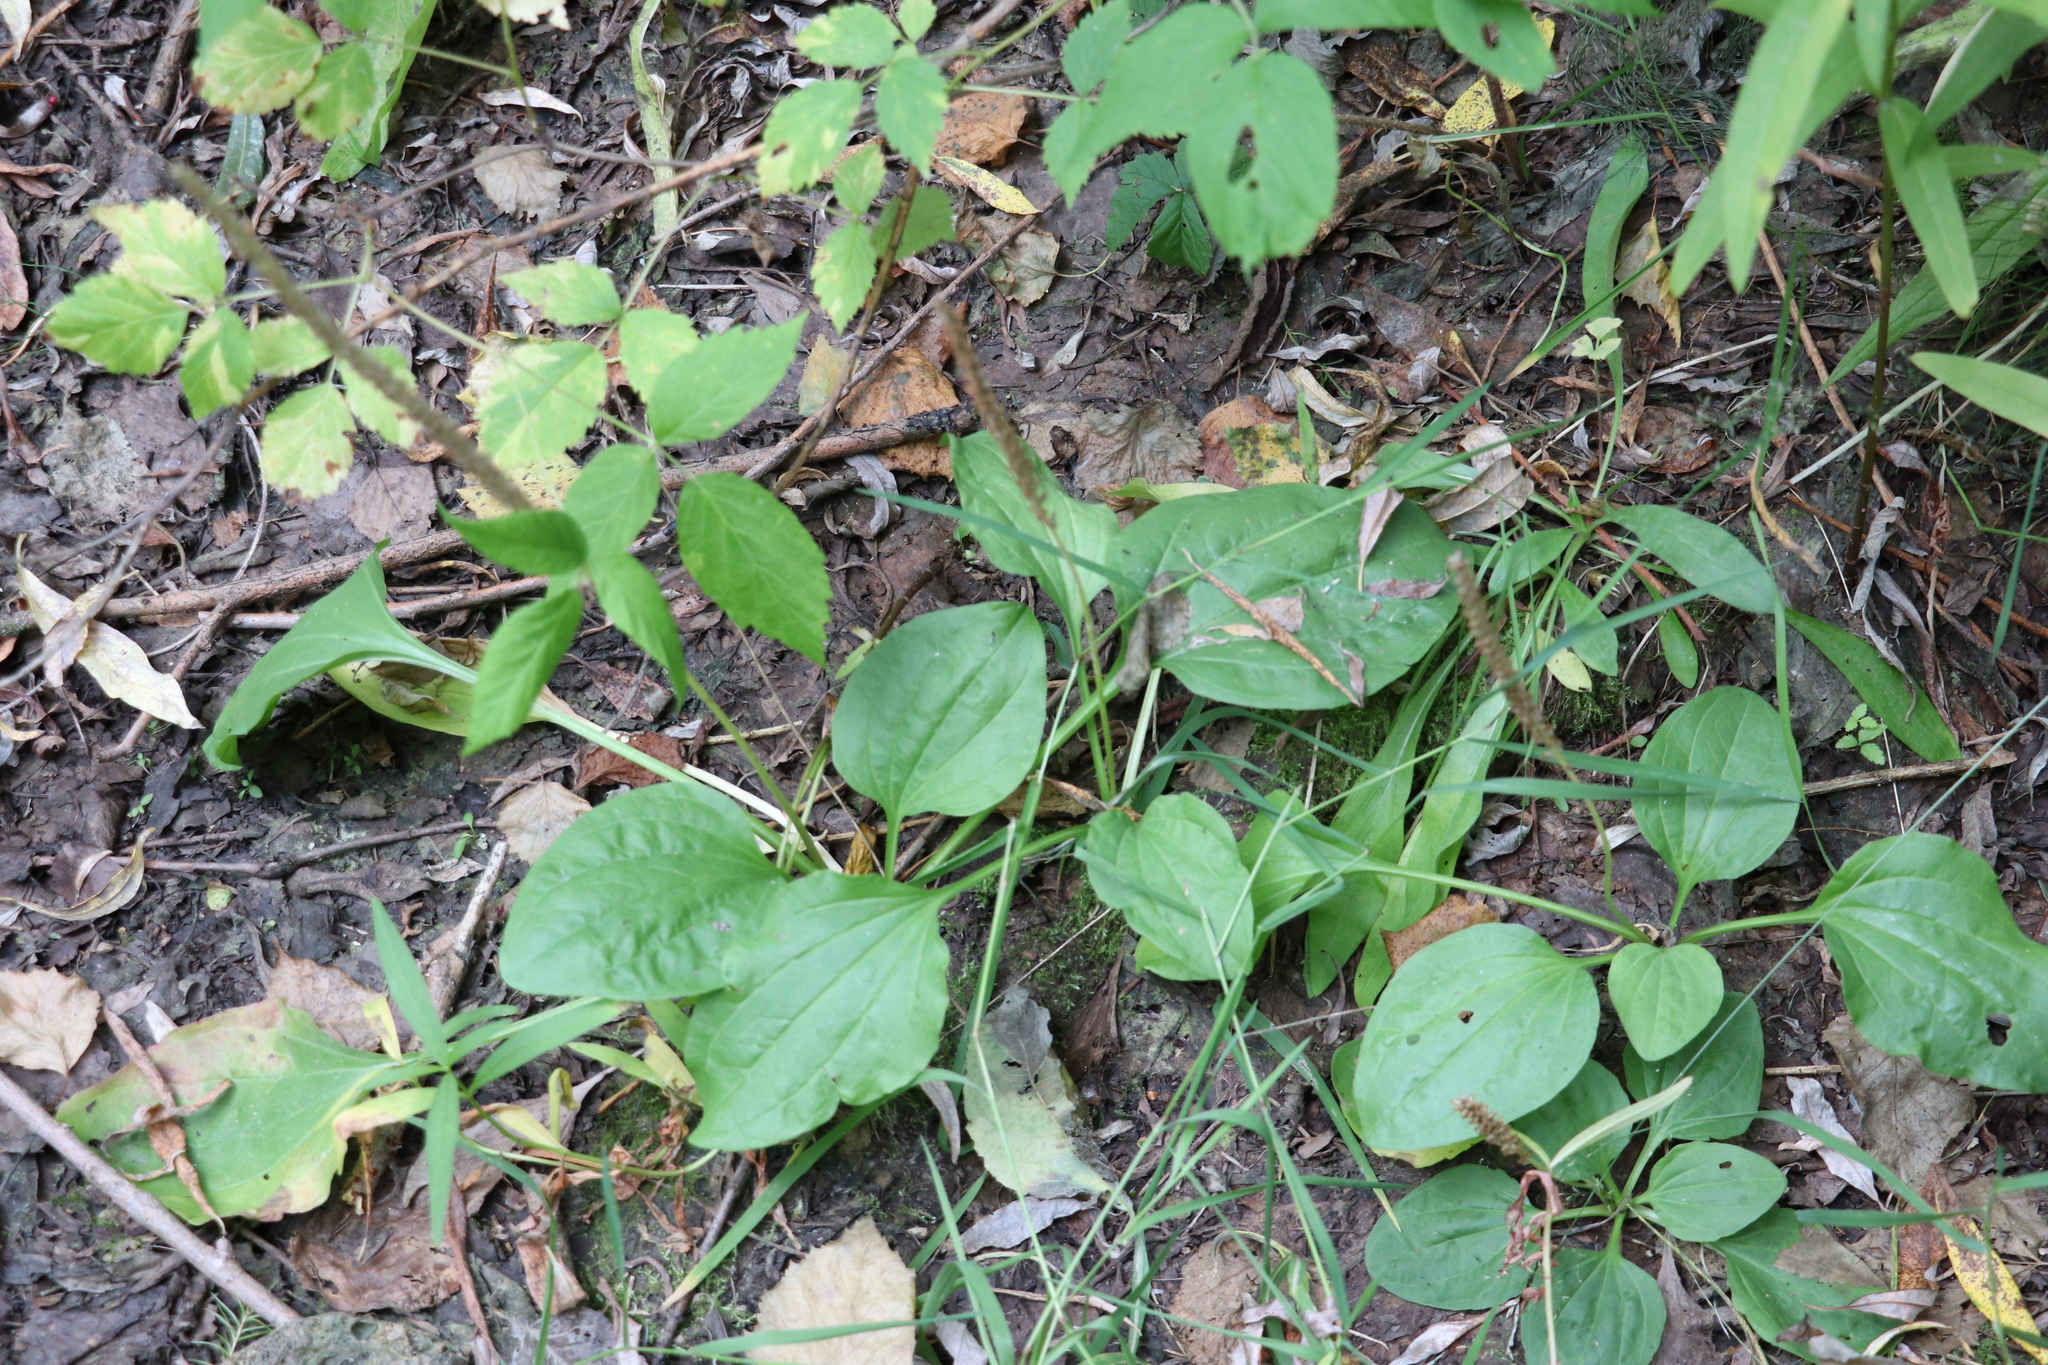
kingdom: Plantae
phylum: Tracheophyta
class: Magnoliopsida
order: Lamiales
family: Plantaginaceae
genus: Plantago
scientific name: Plantago major
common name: Common plantain
